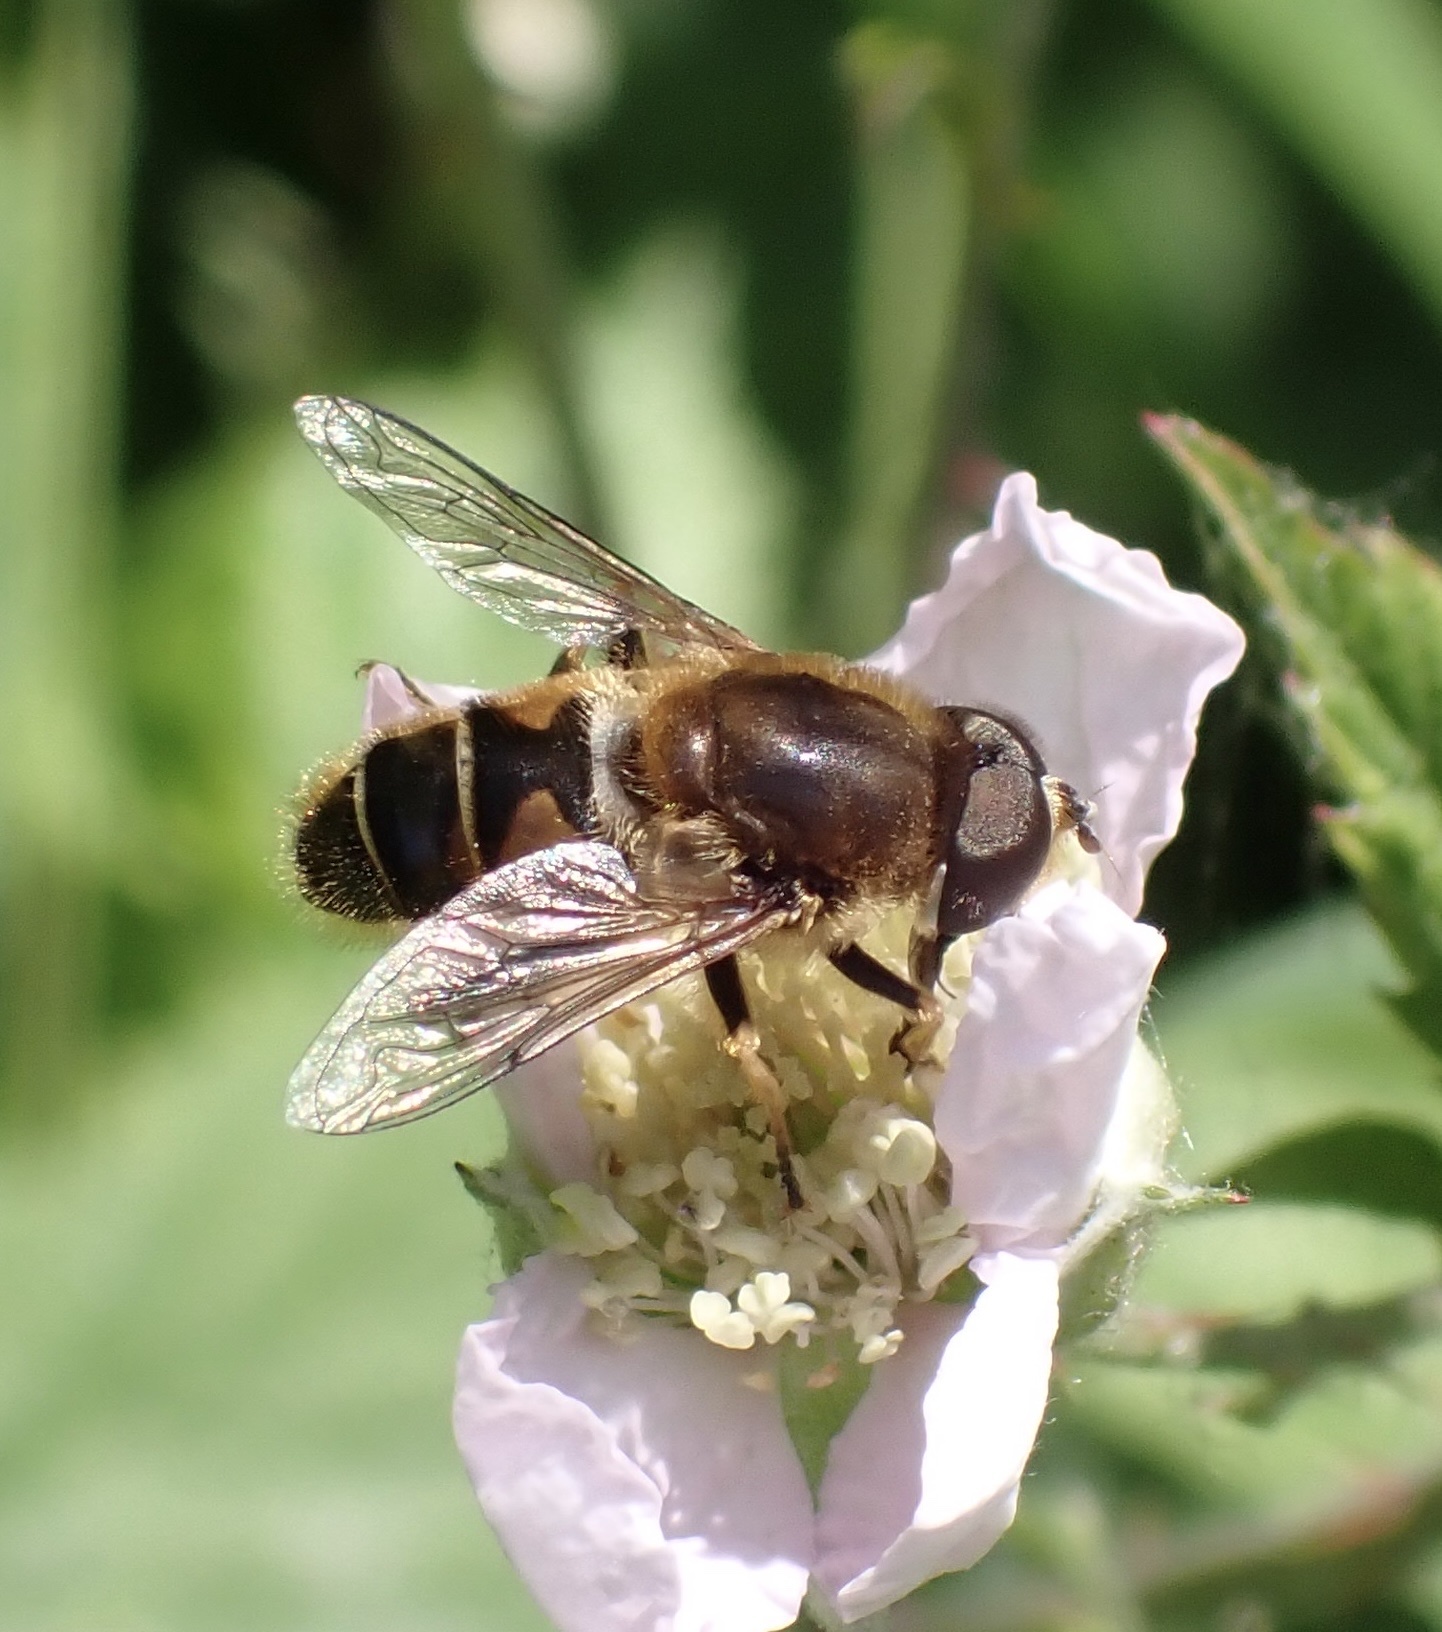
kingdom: Animalia
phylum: Arthropoda
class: Insecta
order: Diptera
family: Syrphidae
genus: Eristalis
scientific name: Eristalis nemorum
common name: Orange-spined drone fly
